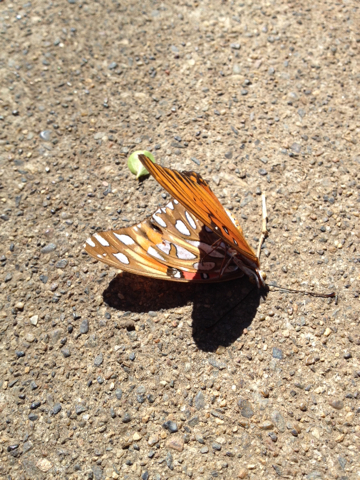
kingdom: Animalia
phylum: Arthropoda
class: Insecta
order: Lepidoptera
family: Nymphalidae
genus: Dione
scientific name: Dione vanillae
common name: Gulf fritillary
